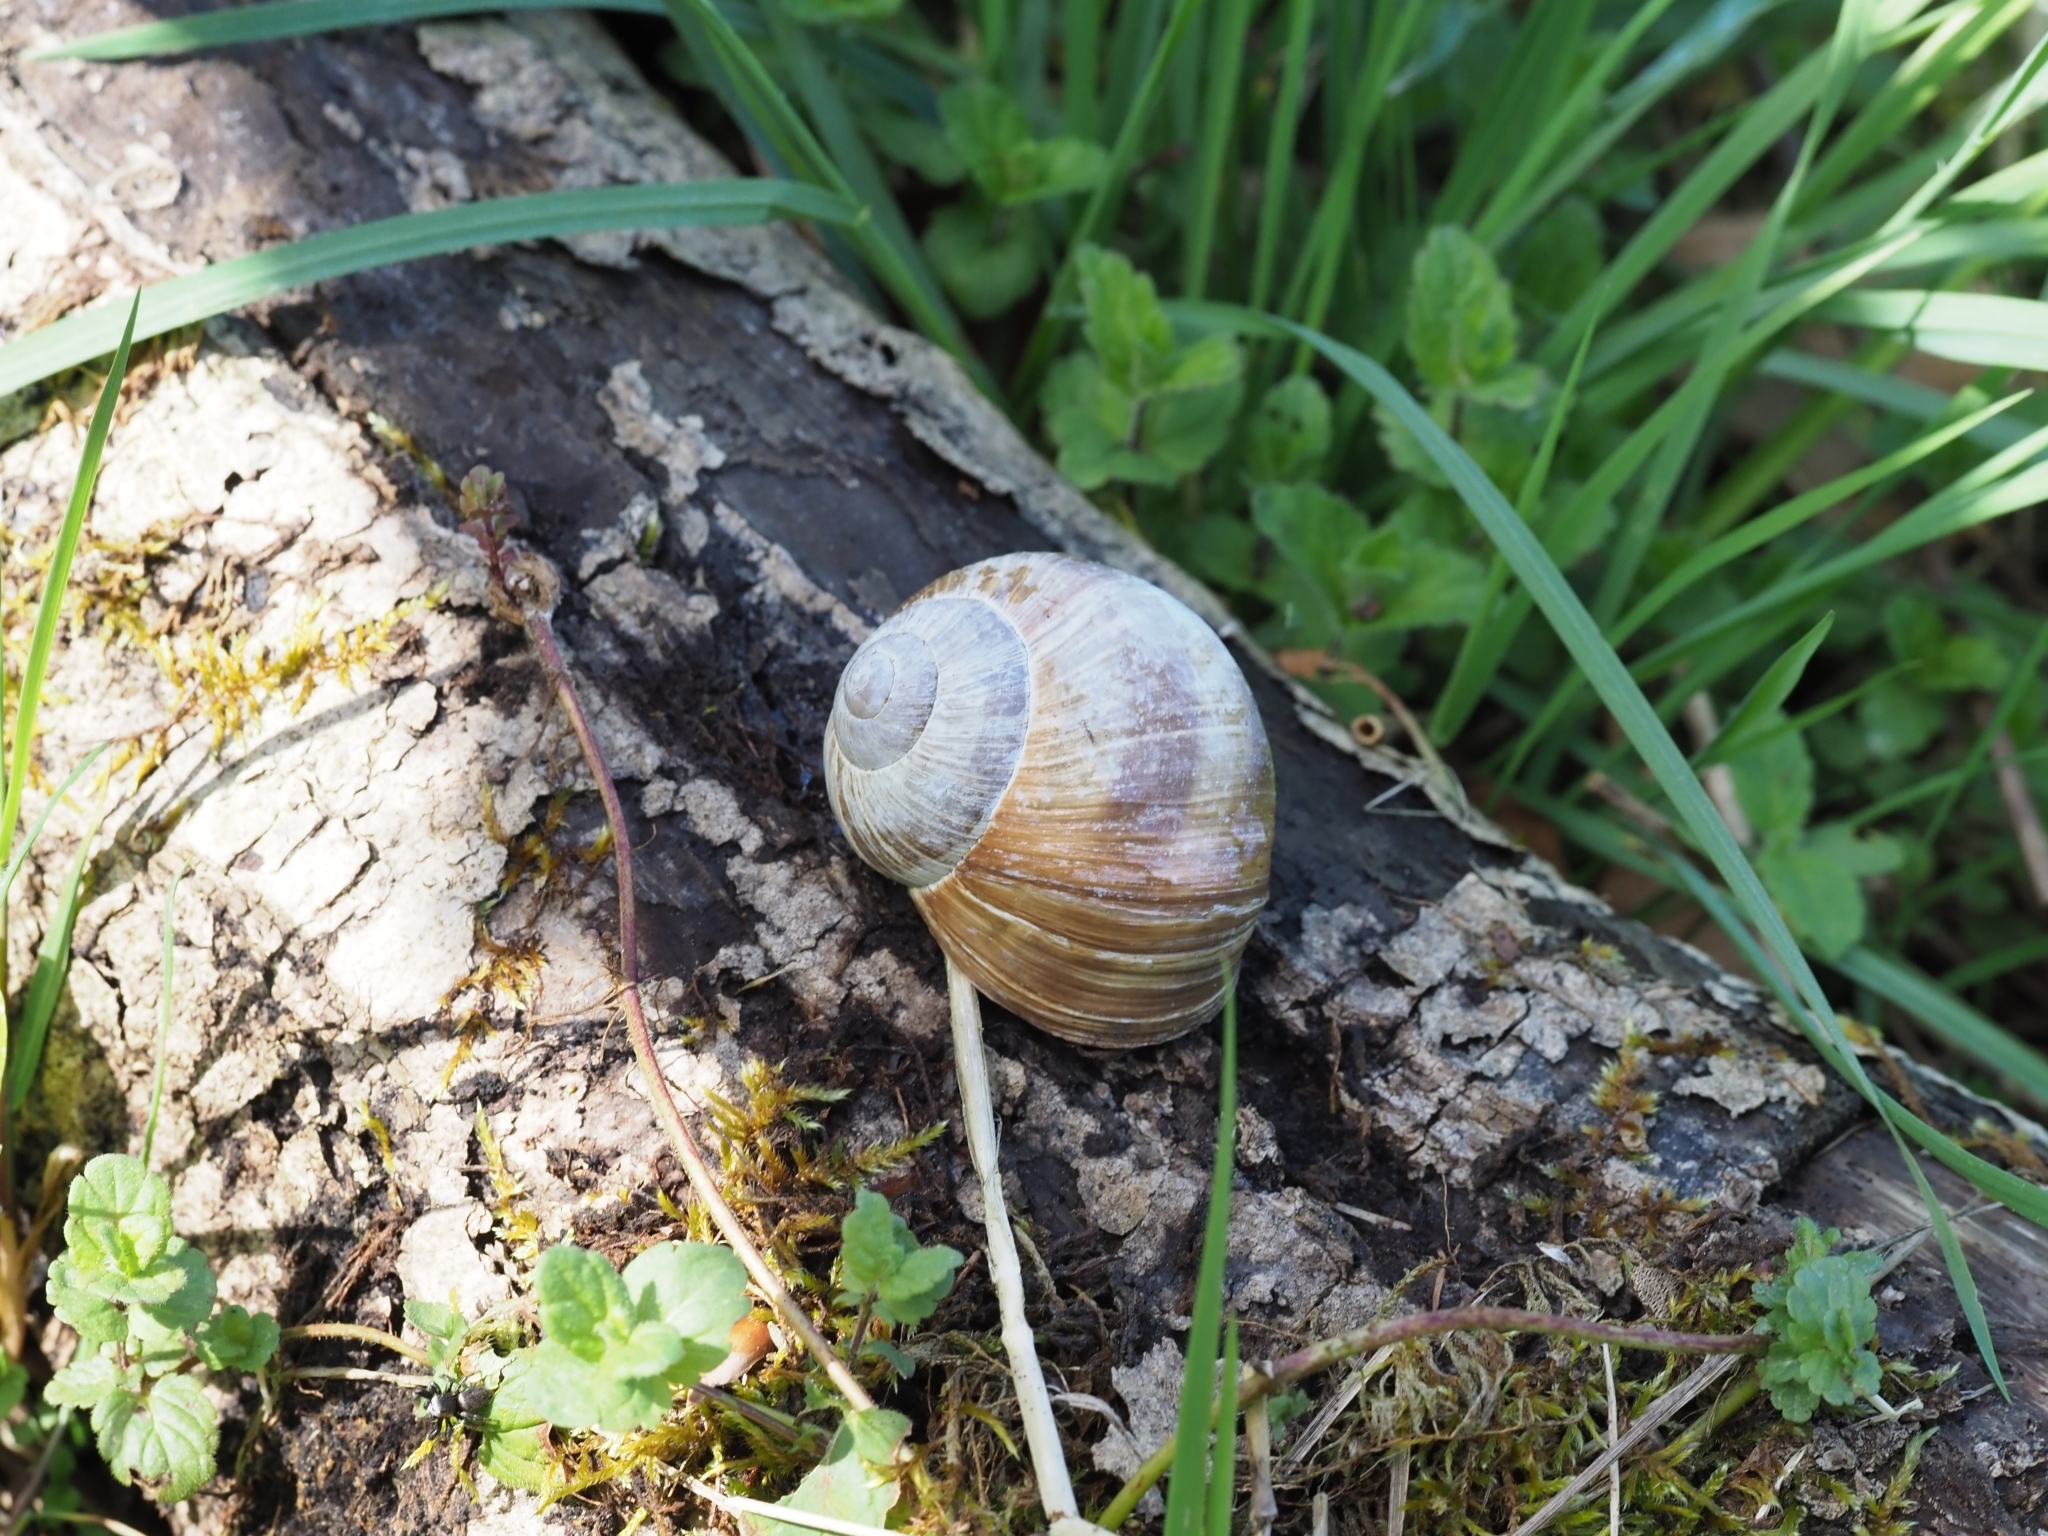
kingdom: Animalia
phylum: Mollusca
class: Gastropoda
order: Stylommatophora
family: Helicidae
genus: Helix
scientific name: Helix pomatia
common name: Roman snail
